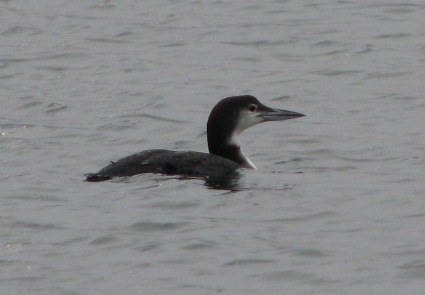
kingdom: Animalia
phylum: Chordata
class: Aves
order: Gaviiformes
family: Gaviidae
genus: Gavia
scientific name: Gavia immer
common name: Common loon
